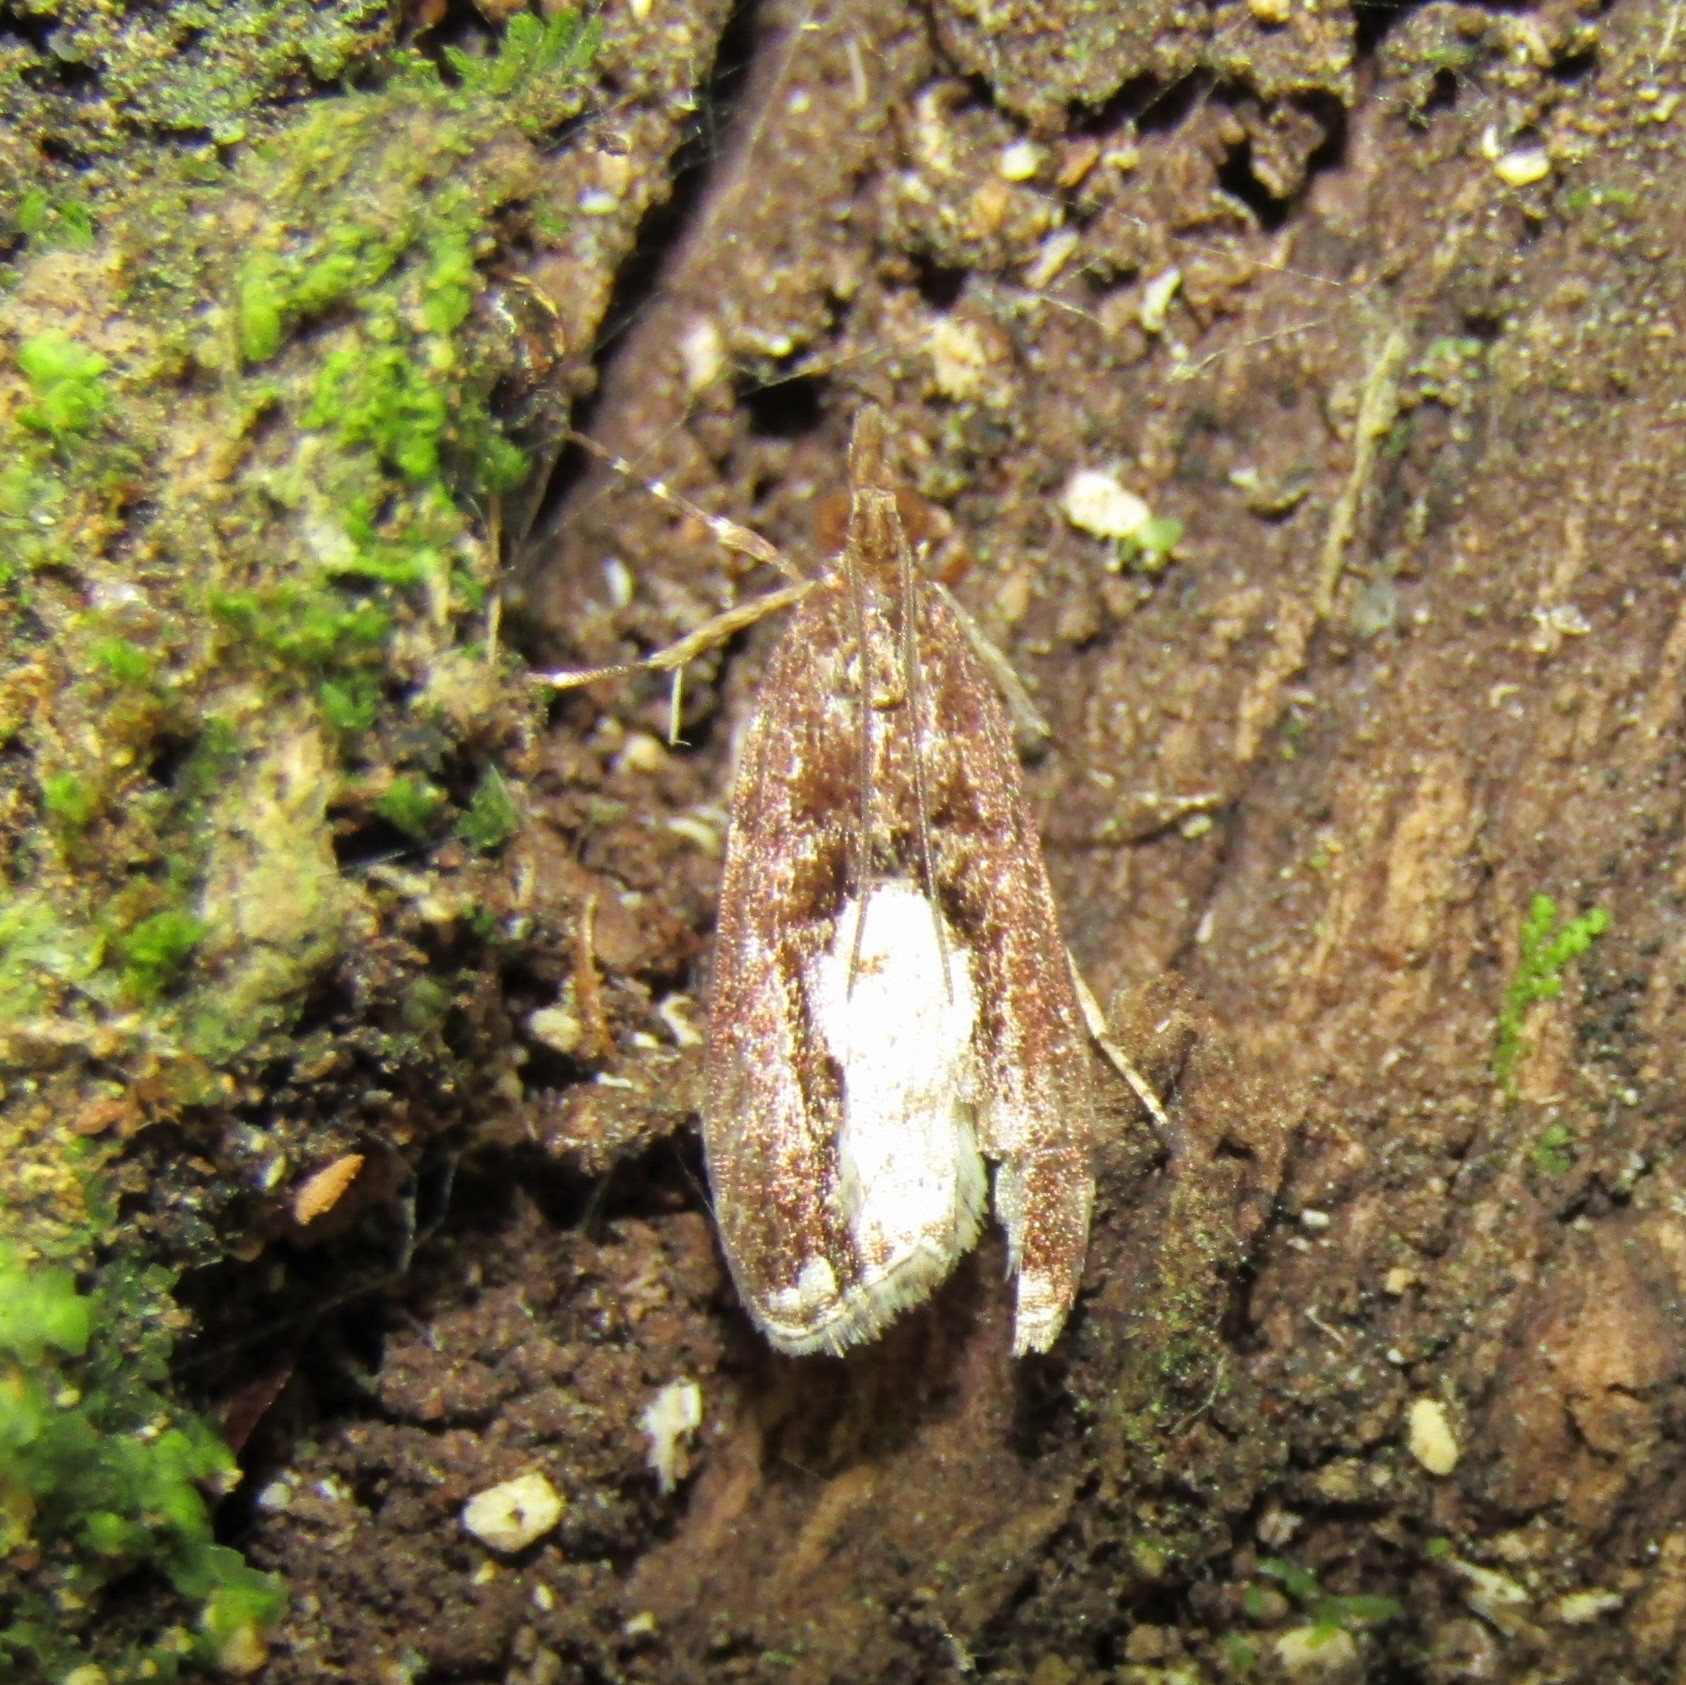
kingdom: Animalia
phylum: Arthropoda
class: Insecta
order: Lepidoptera
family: Crambidae
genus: Eudonia
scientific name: Eudonia hemiplaca
